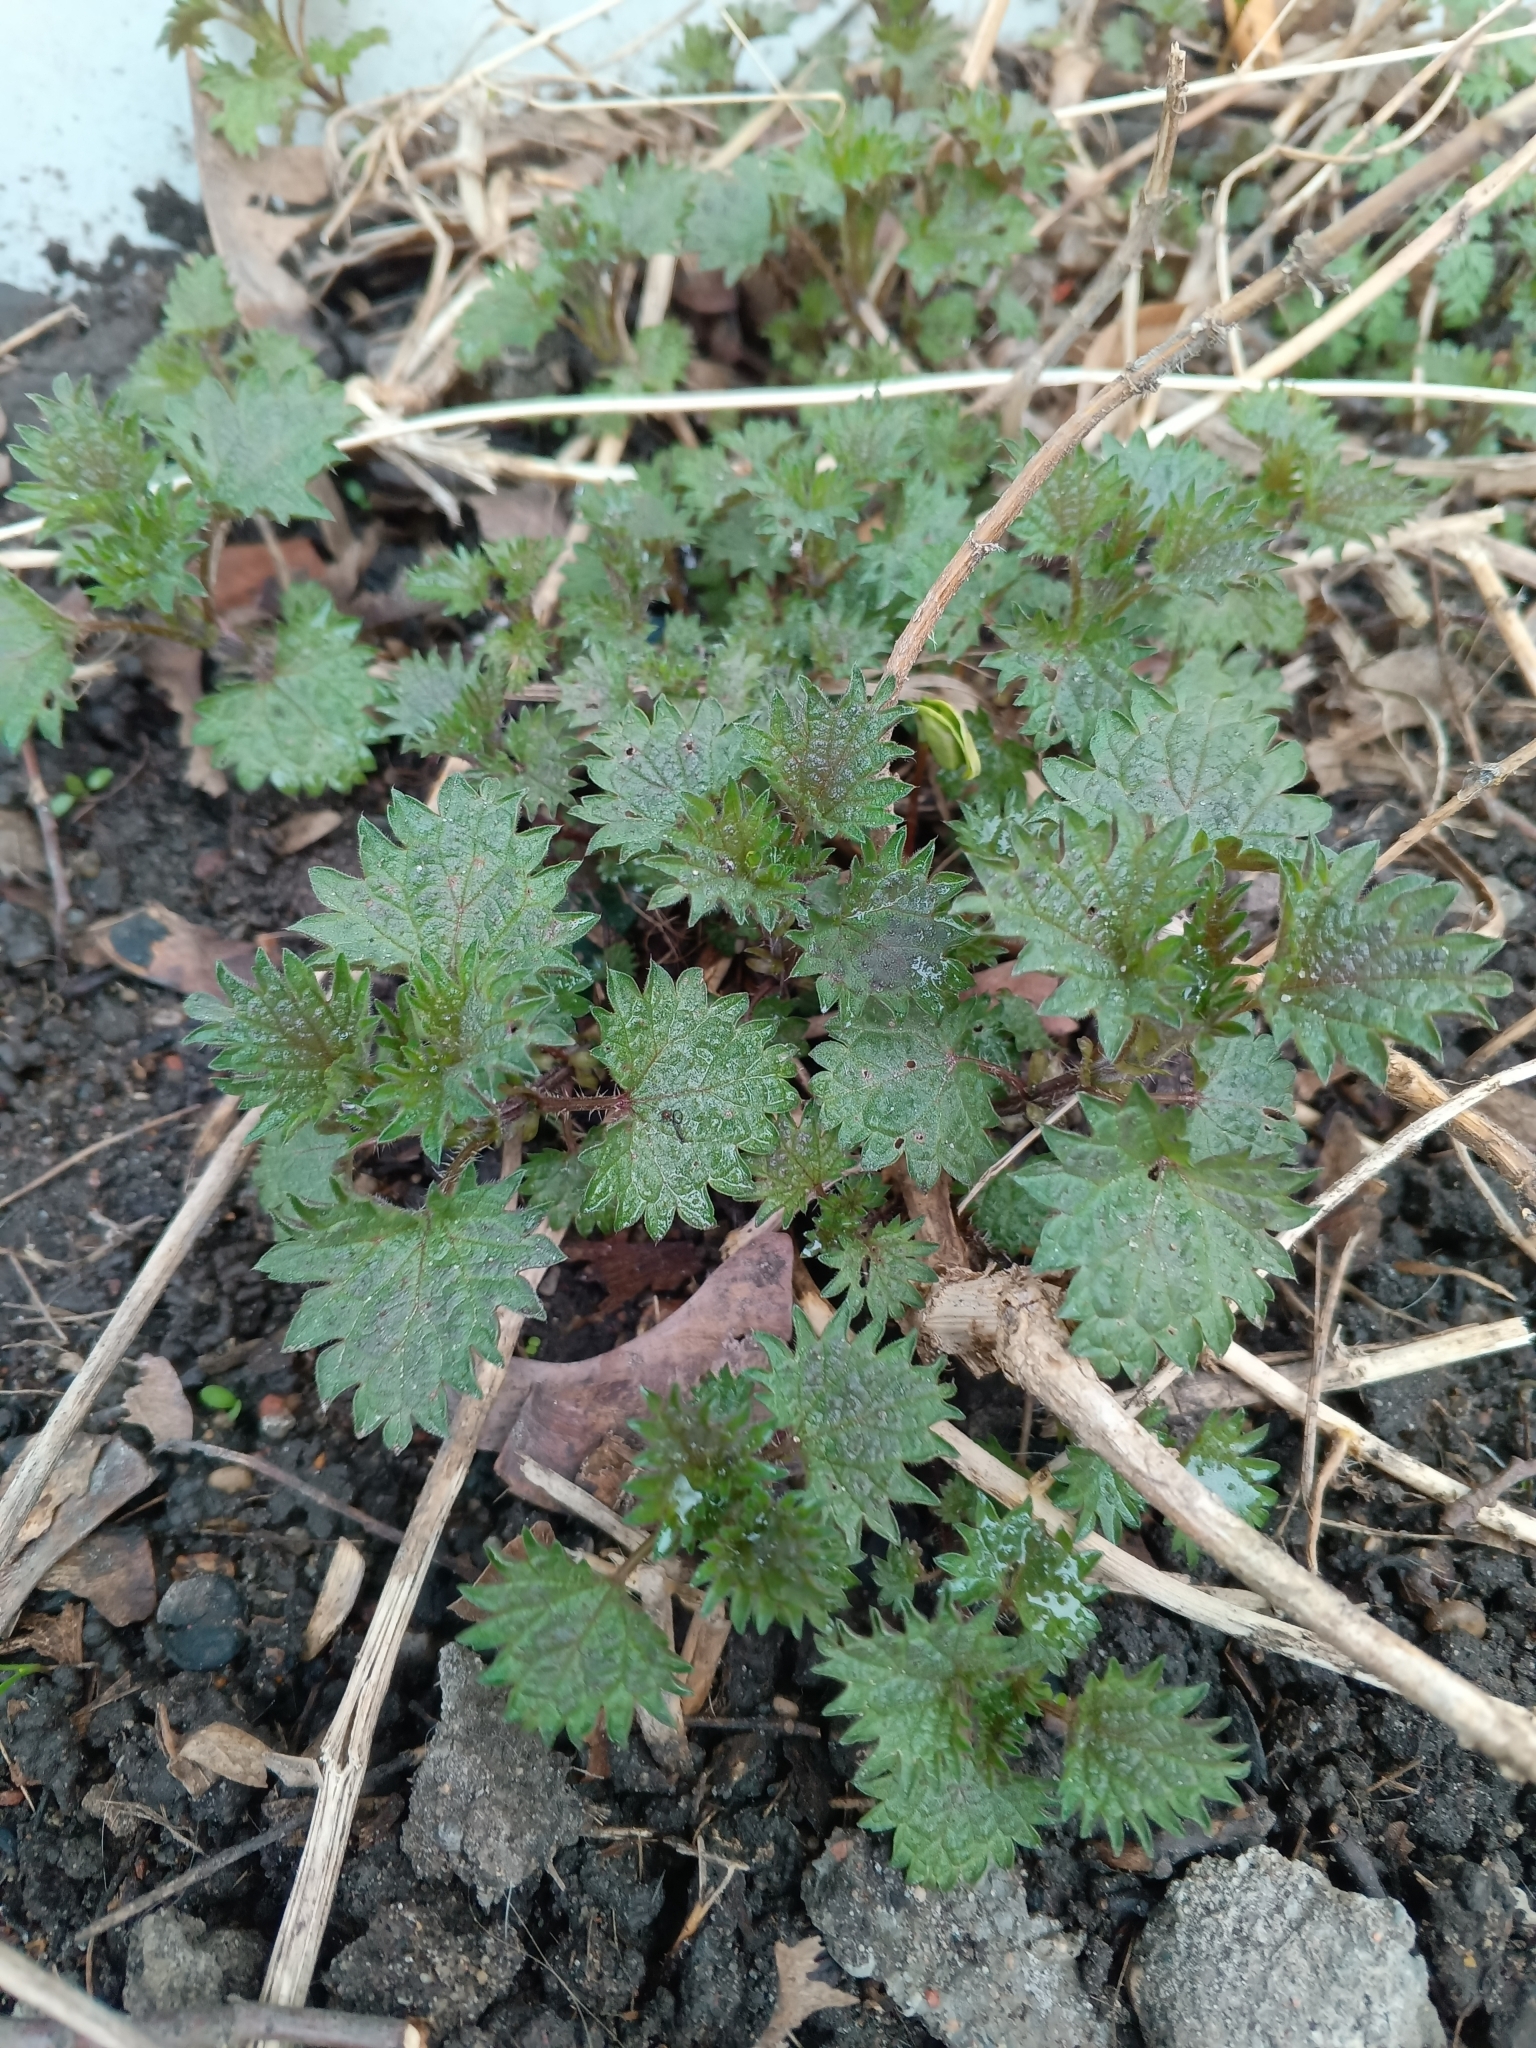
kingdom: Plantae
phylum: Tracheophyta
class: Magnoliopsida
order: Rosales
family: Urticaceae
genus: Urtica
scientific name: Urtica dioica
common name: Common nettle
